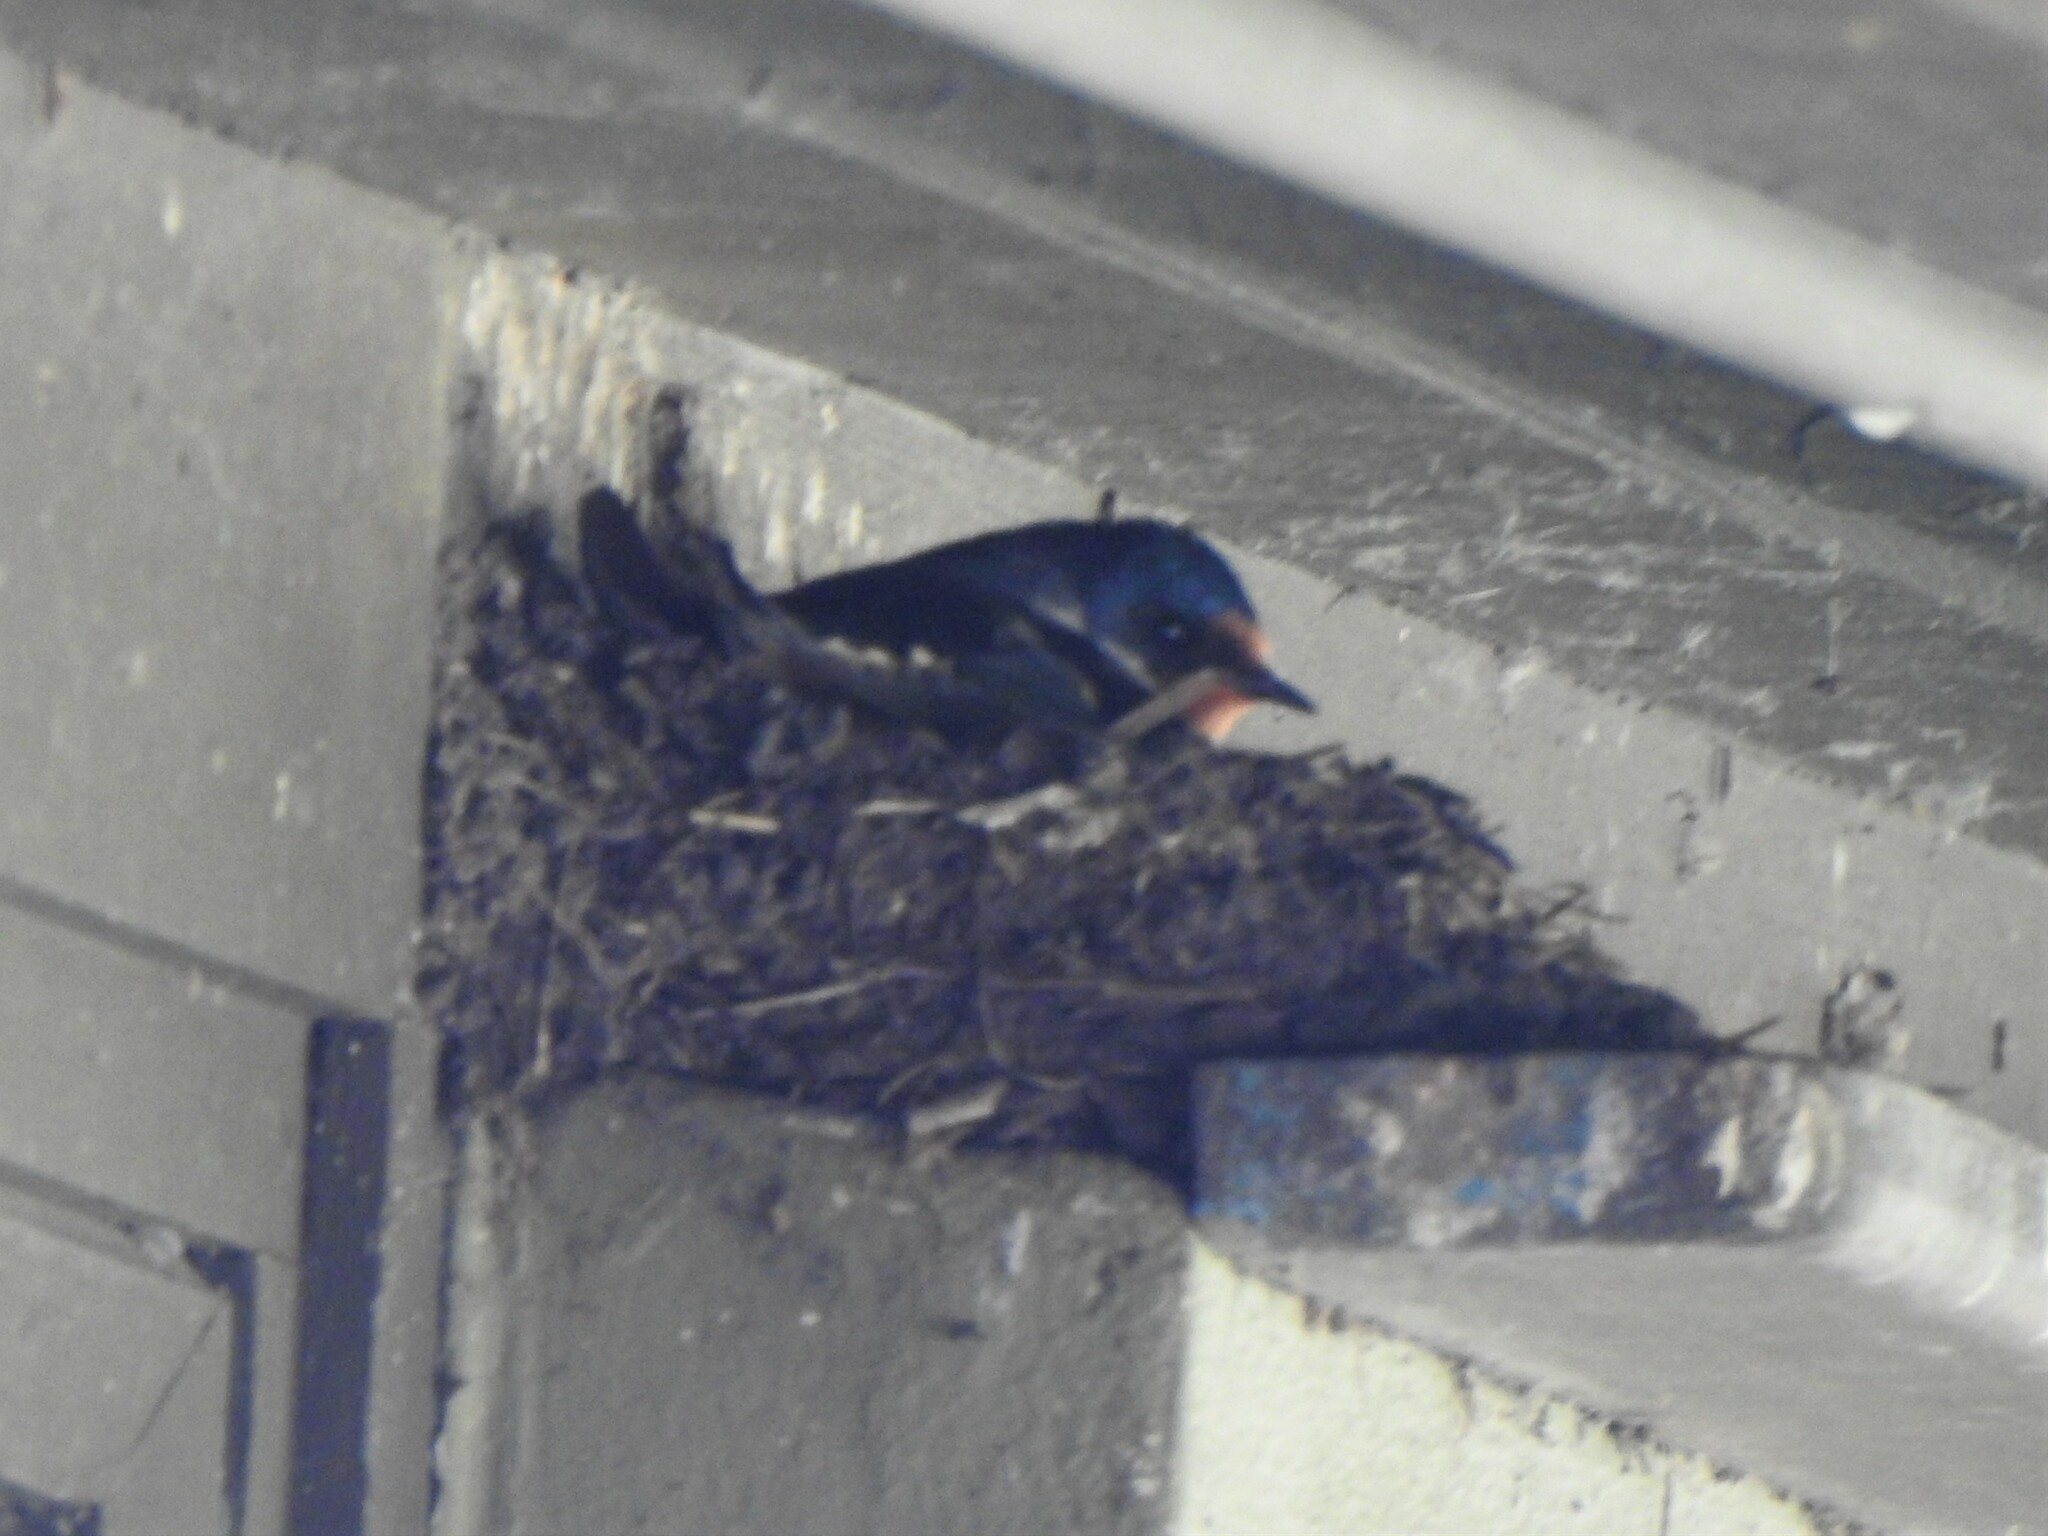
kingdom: Animalia
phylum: Chordata
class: Aves
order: Passeriformes
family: Hirundinidae
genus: Hirundo
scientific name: Hirundo rustica
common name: Barn swallow
